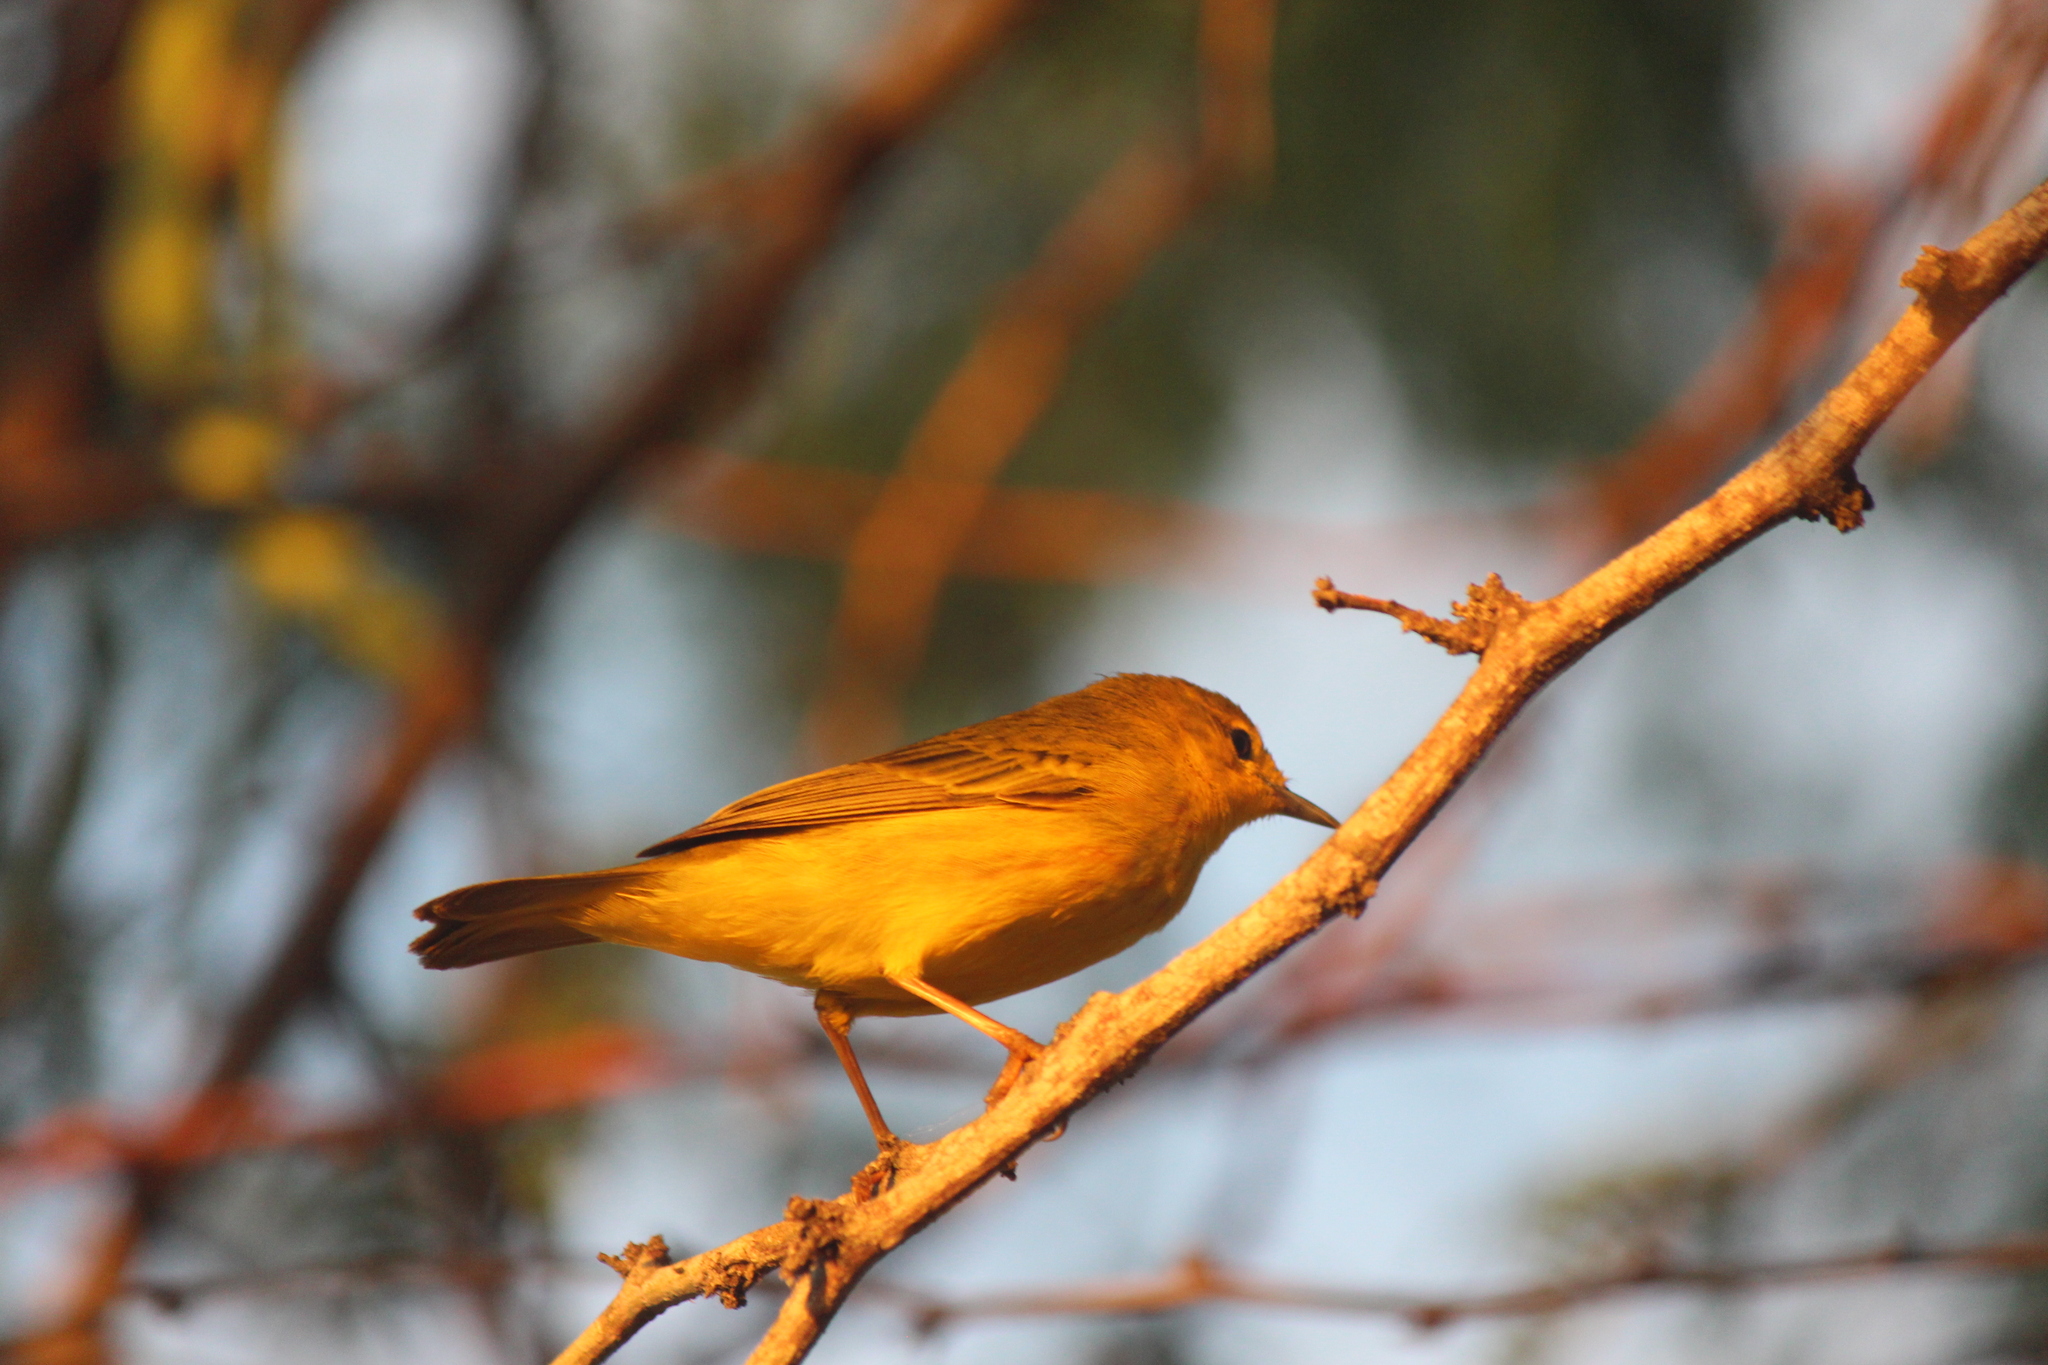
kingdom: Animalia
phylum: Chordata
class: Aves
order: Passeriformes
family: Parulidae
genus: Setophaga
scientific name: Setophaga petechia
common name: Yellow warbler
